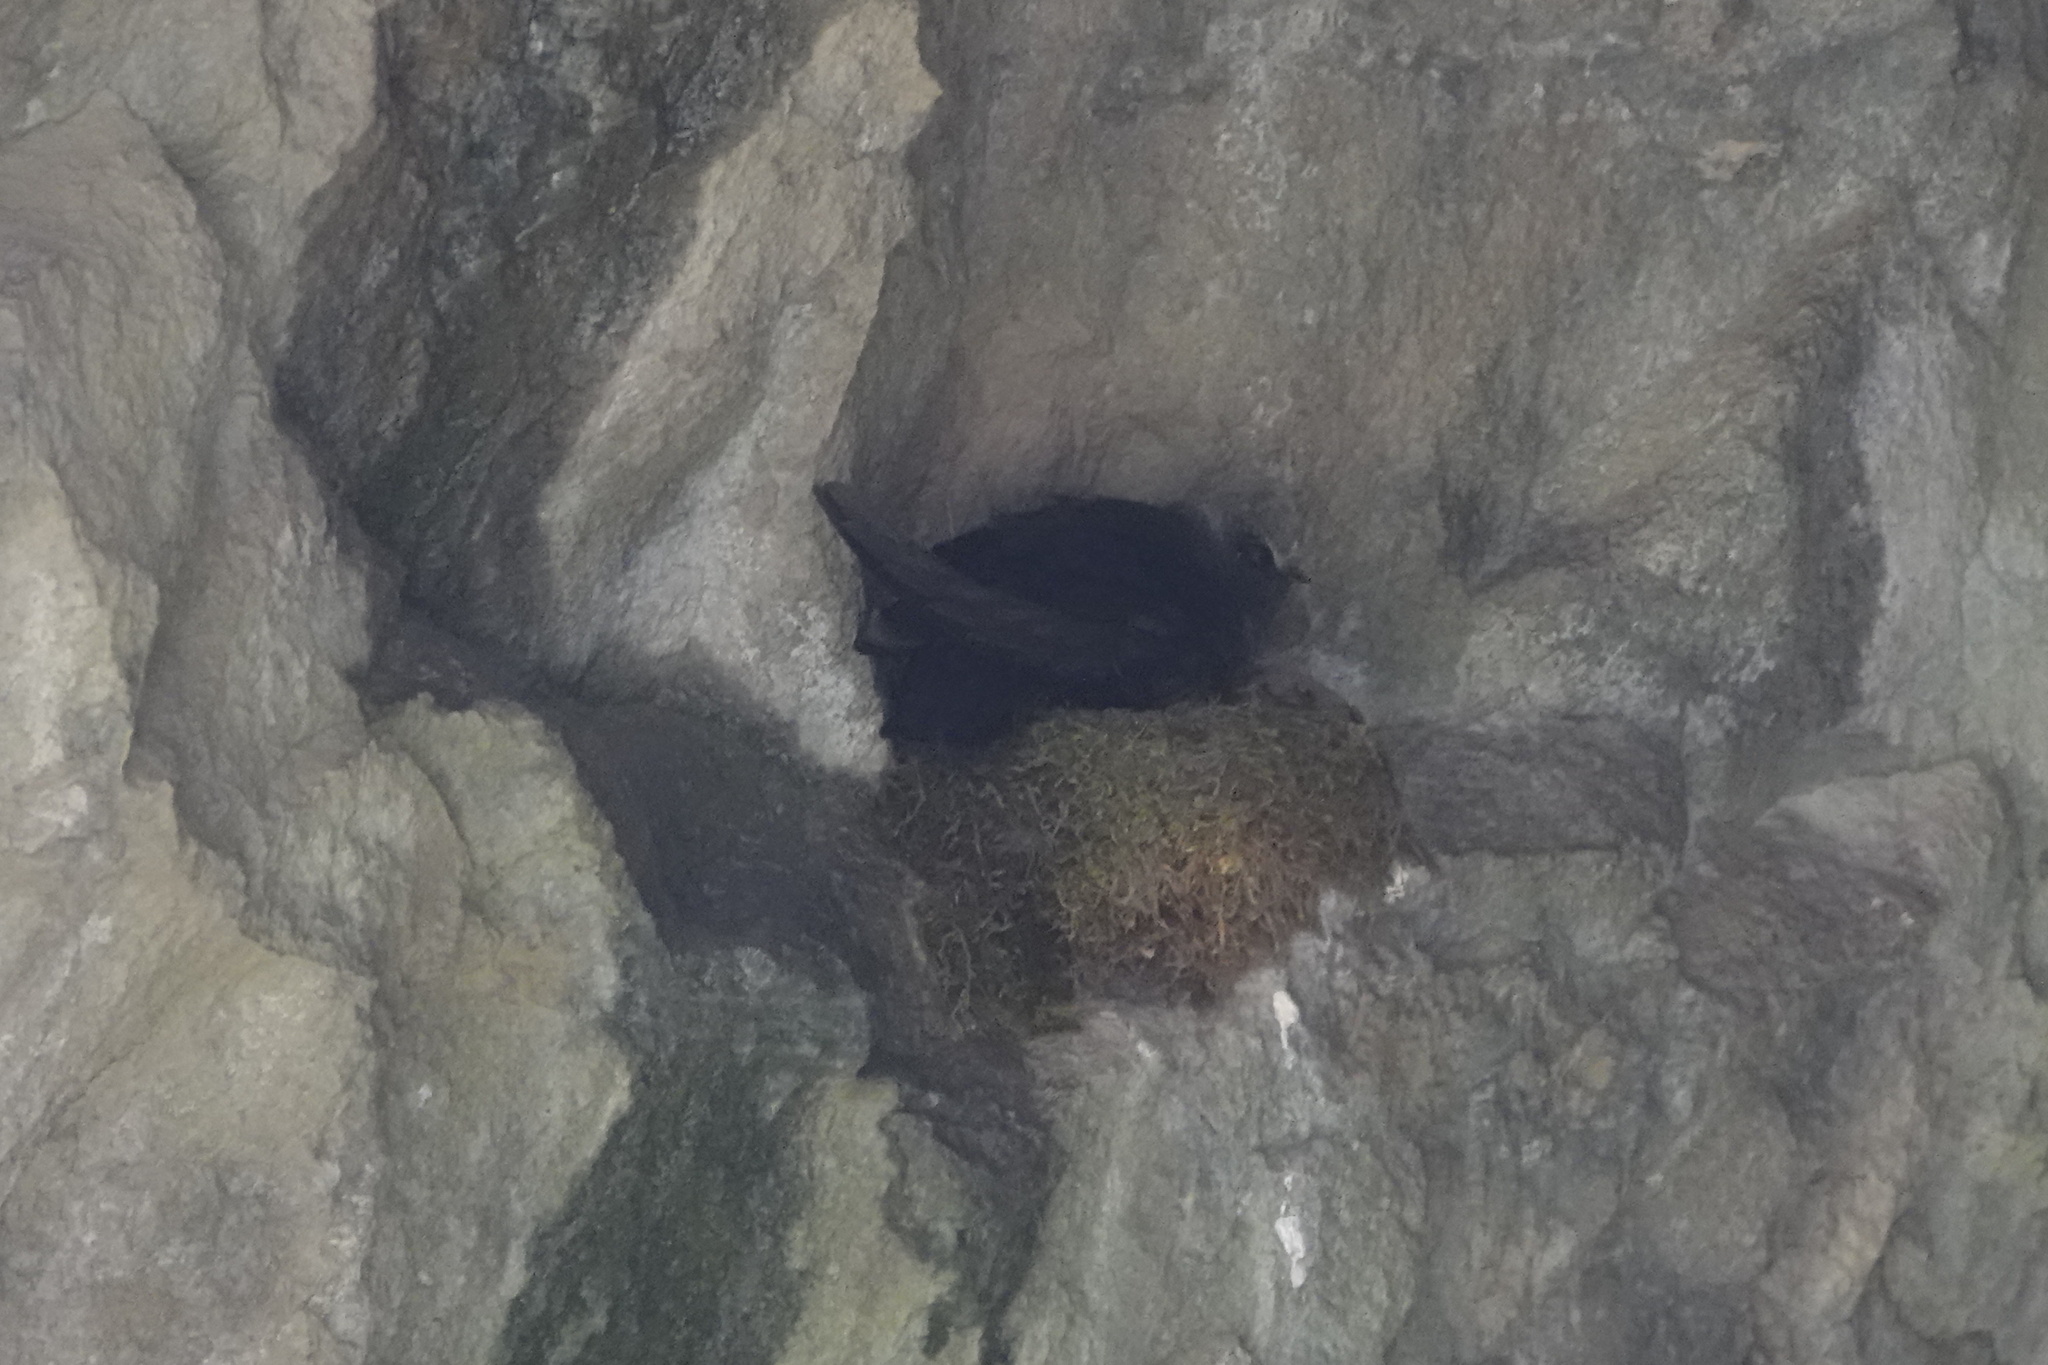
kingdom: Animalia
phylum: Chordata
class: Aves
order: Apodiformes
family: Apodidae
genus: Cypseloides
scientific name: Cypseloides niger
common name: Black swift
